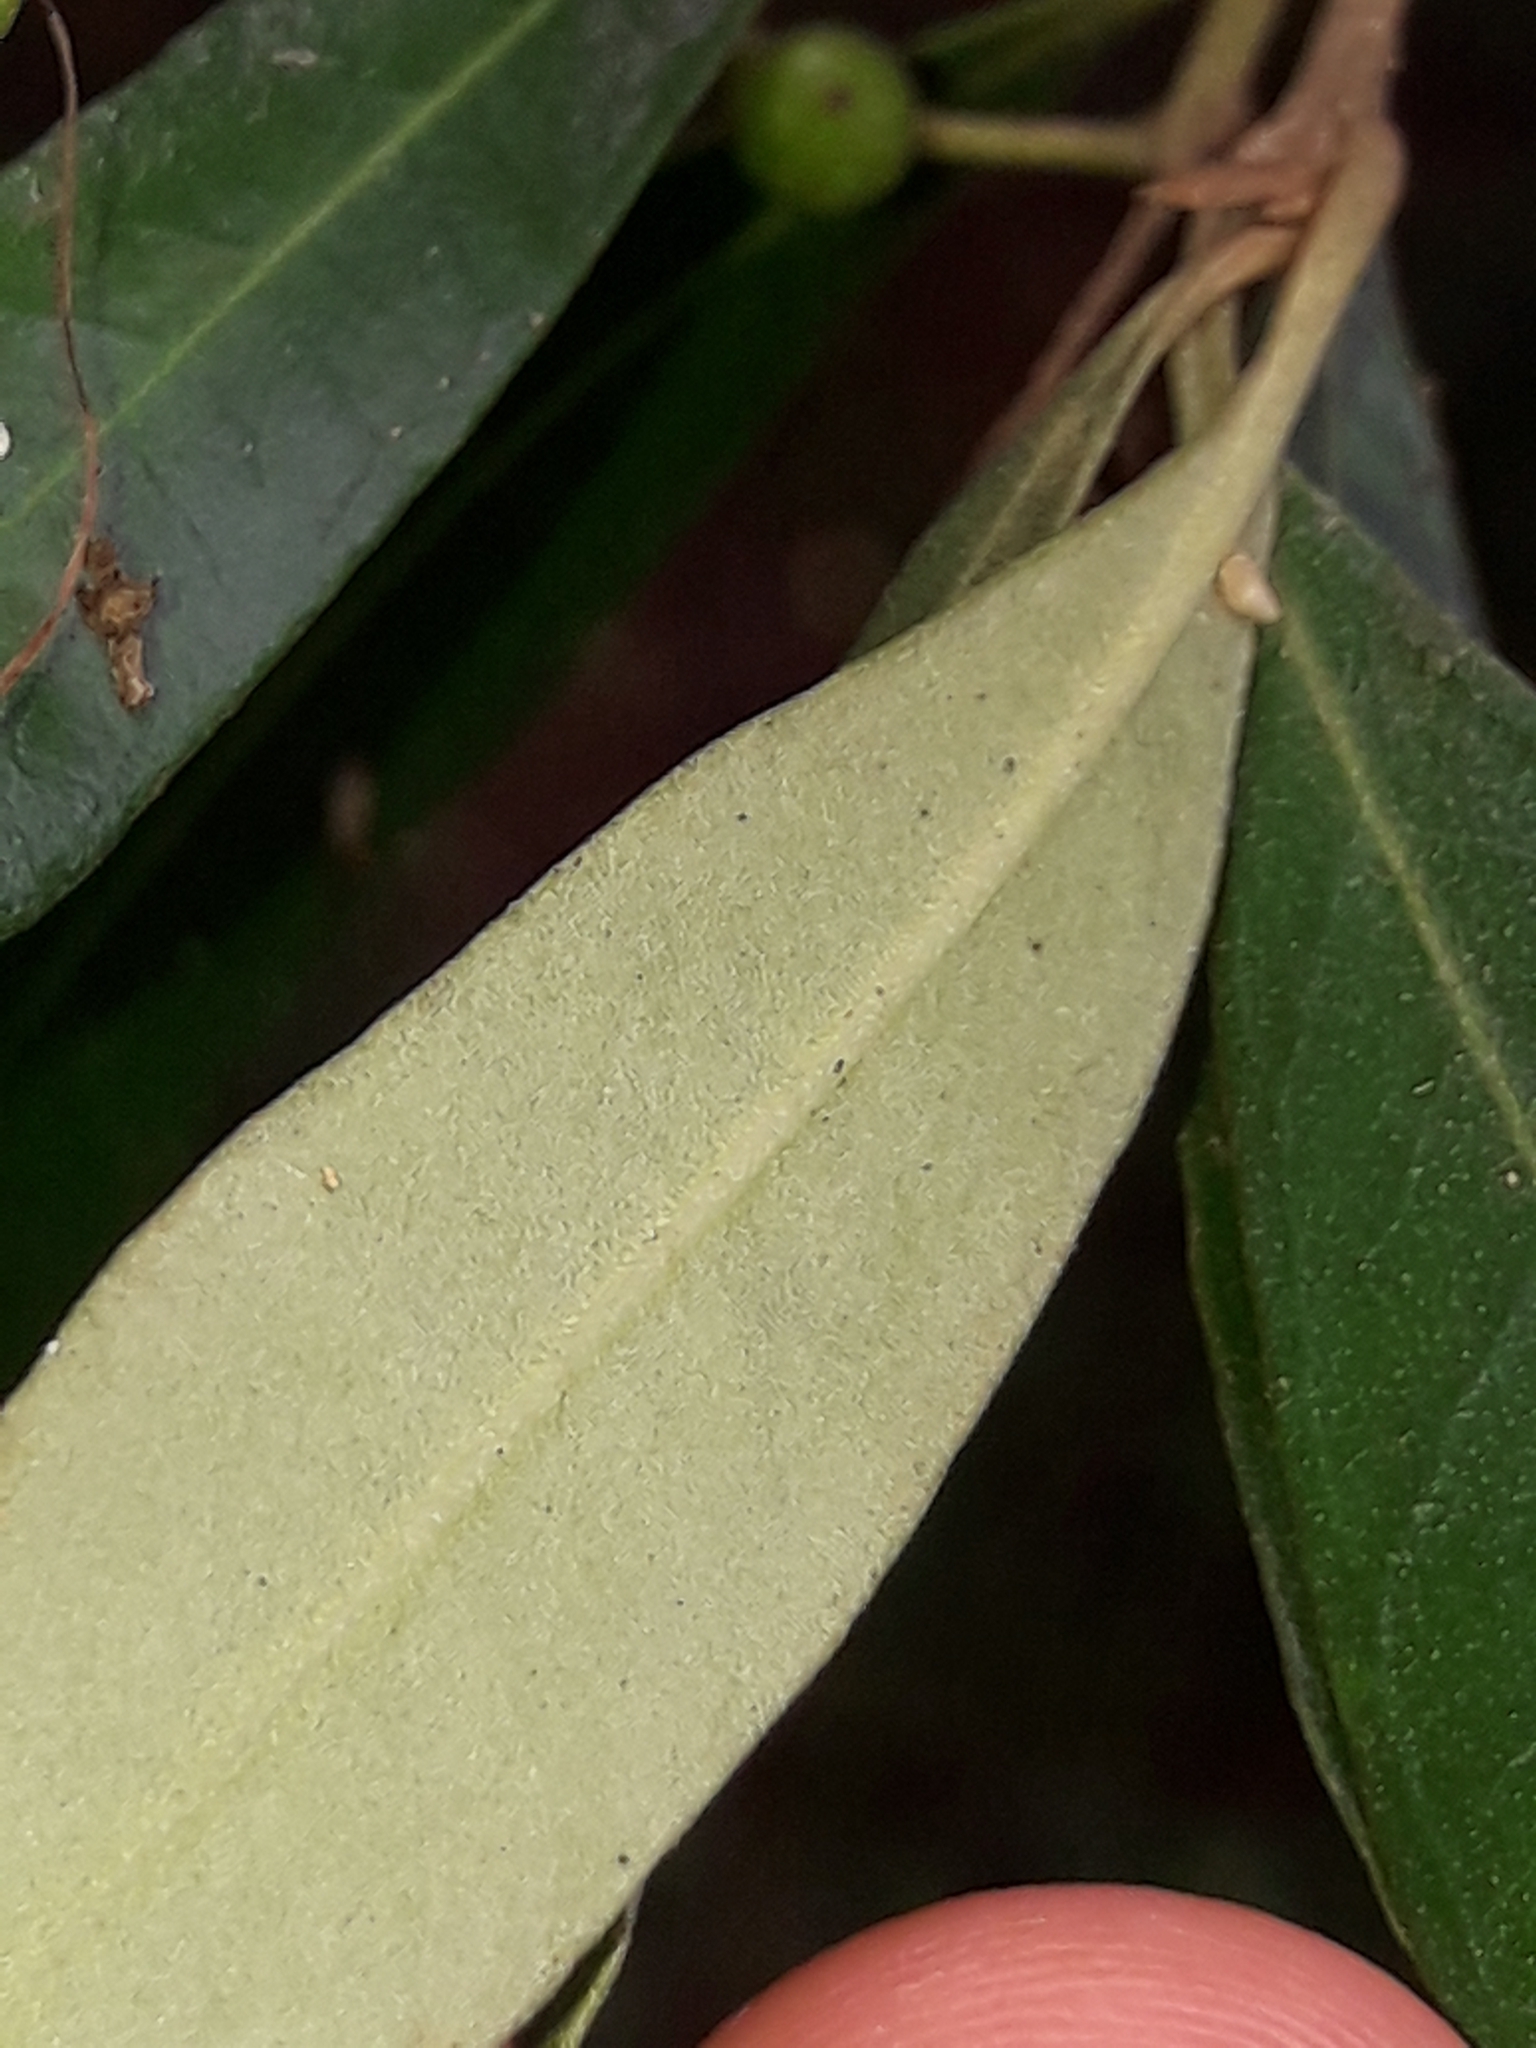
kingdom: Plantae
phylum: Tracheophyta
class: Magnoliopsida
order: Lamiales
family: Oleaceae
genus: Nestegis
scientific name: Nestegis lanceolata
